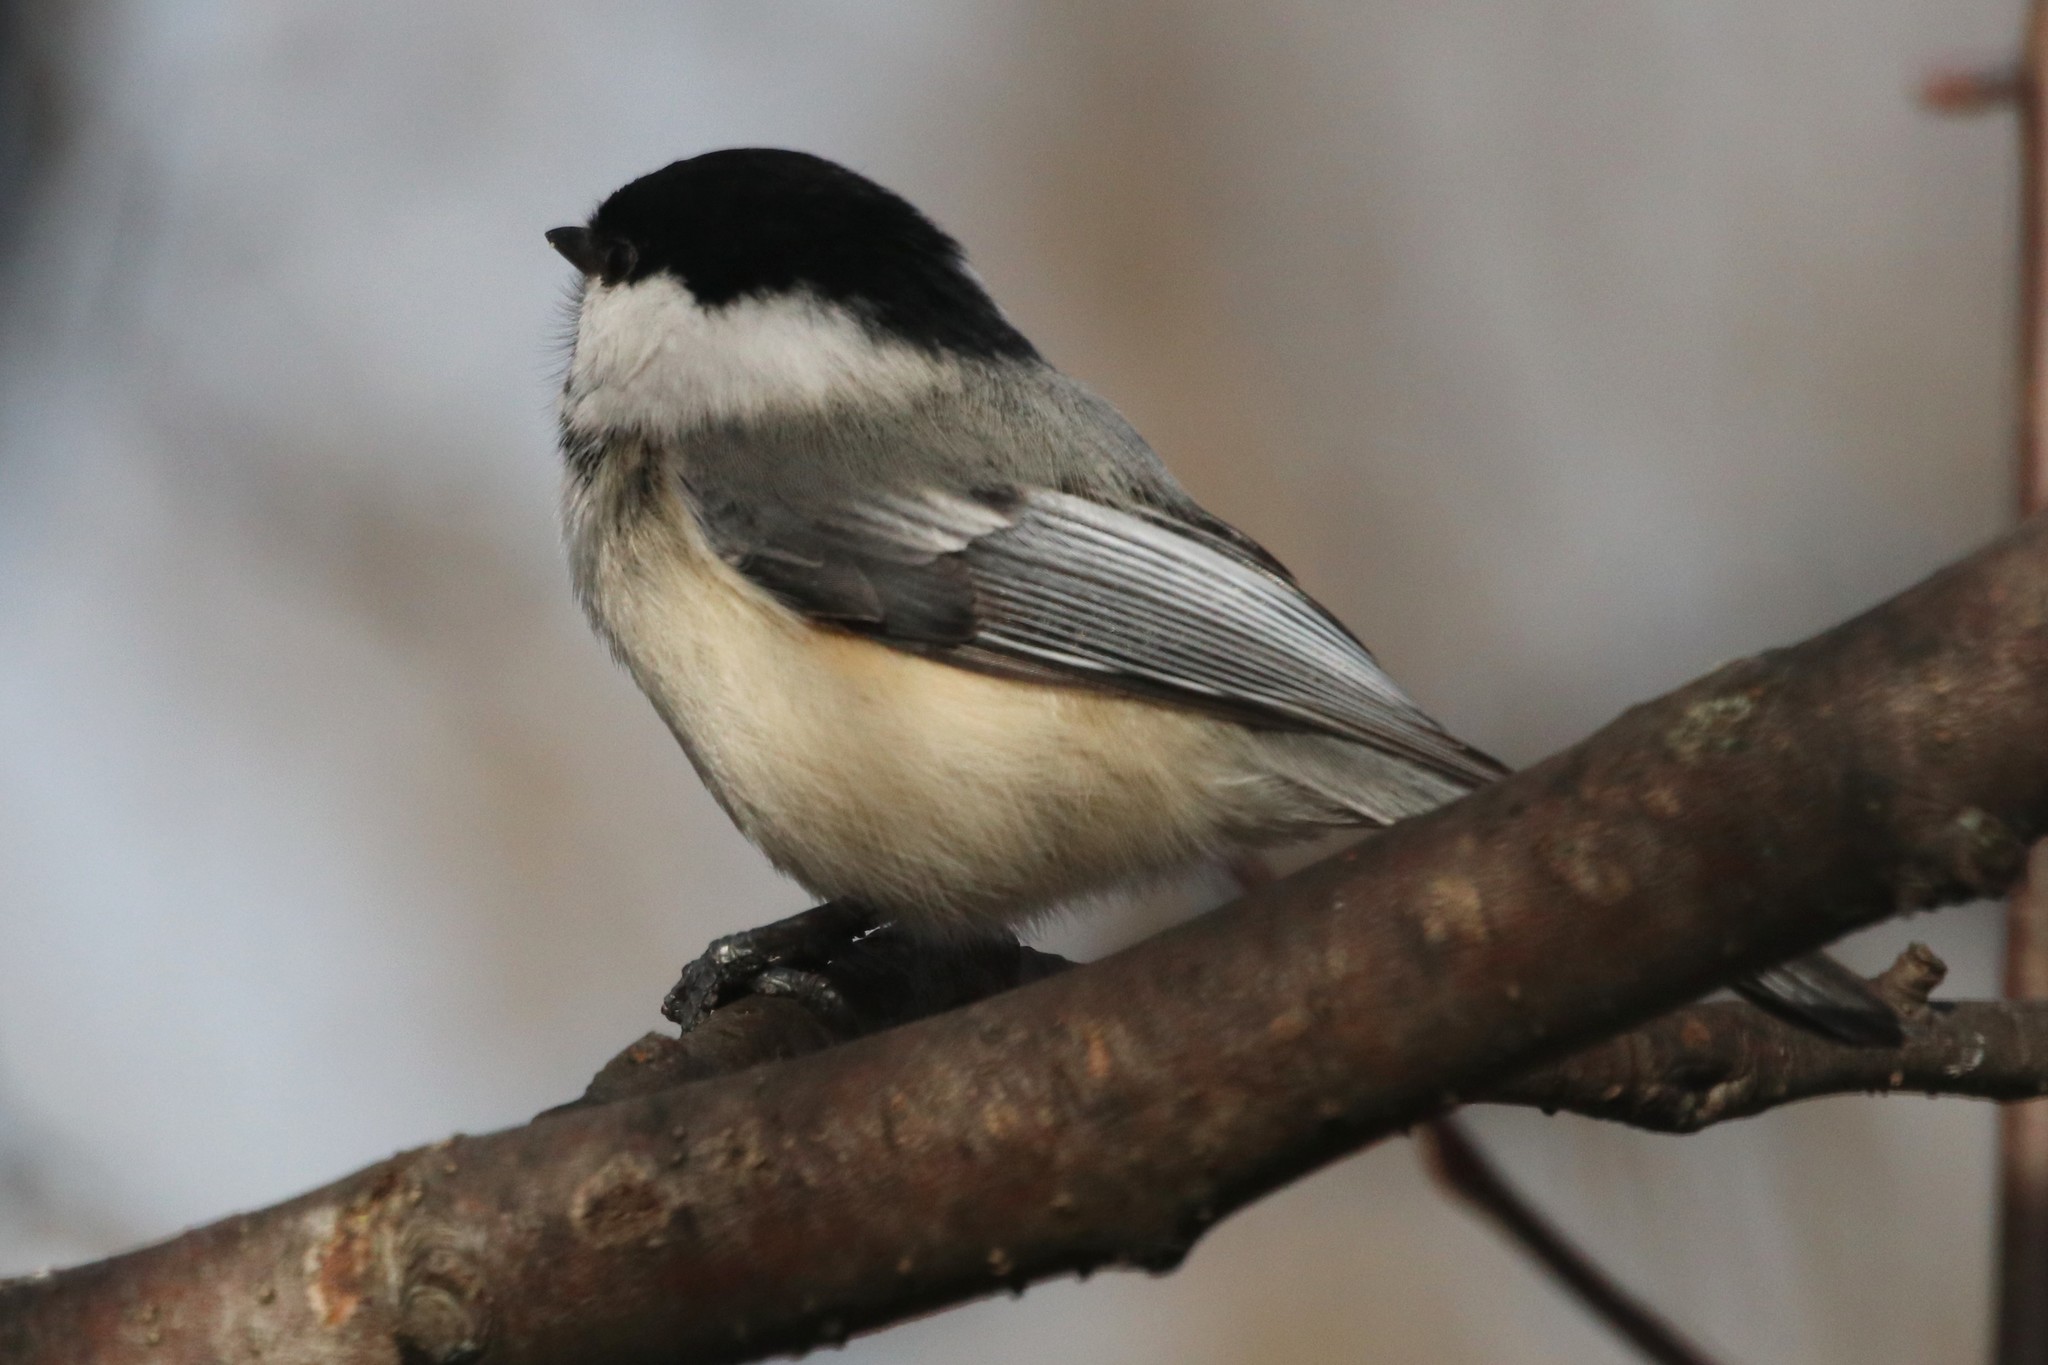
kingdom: Animalia
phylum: Chordata
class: Aves
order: Passeriformes
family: Paridae
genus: Poecile
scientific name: Poecile atricapillus
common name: Black-capped chickadee
